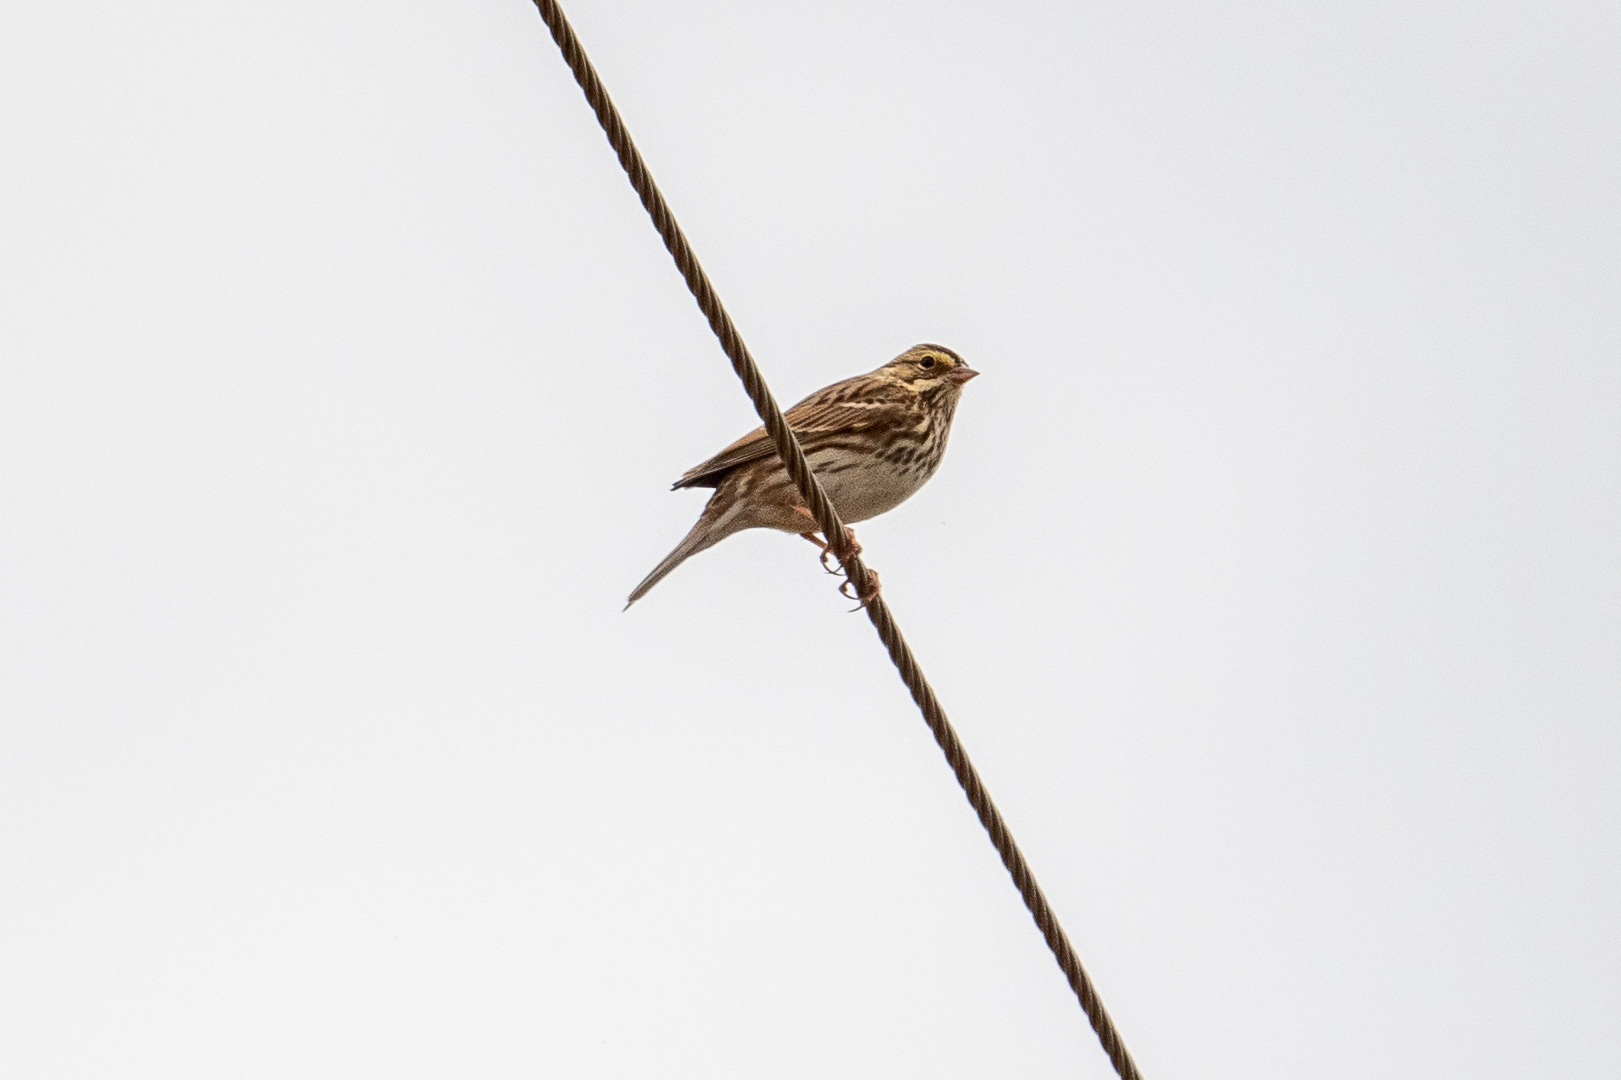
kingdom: Animalia
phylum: Chordata
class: Aves
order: Passeriformes
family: Passerellidae
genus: Passerculus
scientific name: Passerculus sandwichensis
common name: Savannah sparrow
